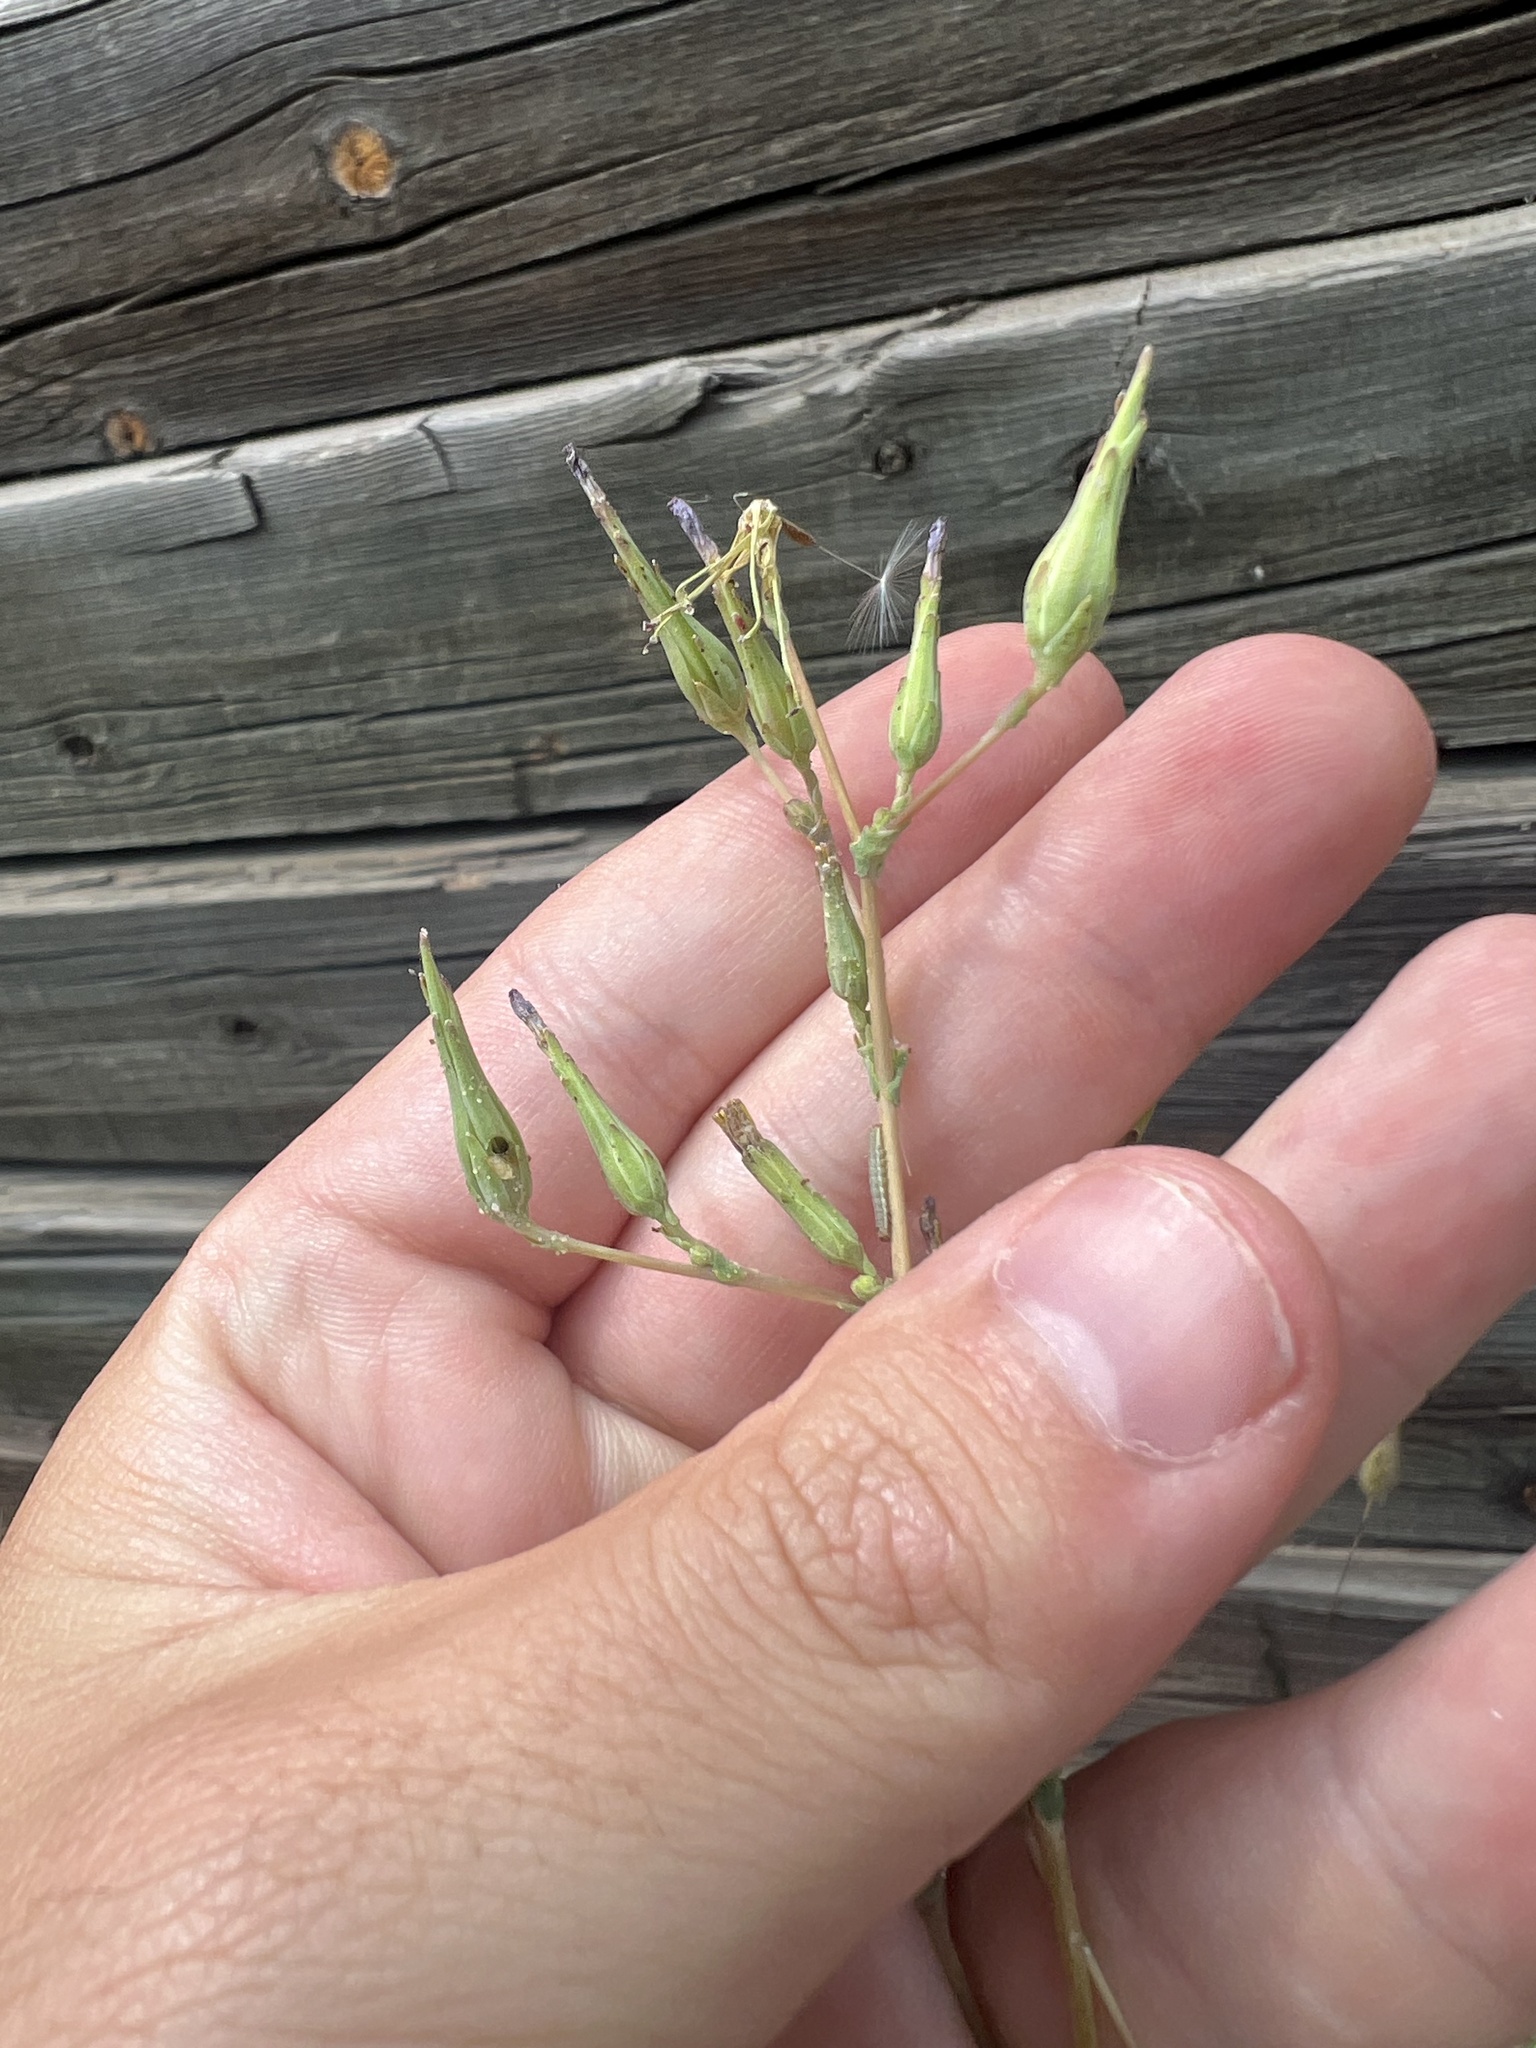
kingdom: Plantae
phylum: Tracheophyta
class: Magnoliopsida
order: Asterales
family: Asteraceae
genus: Lactuca
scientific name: Lactuca serriola
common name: Prickly lettuce
